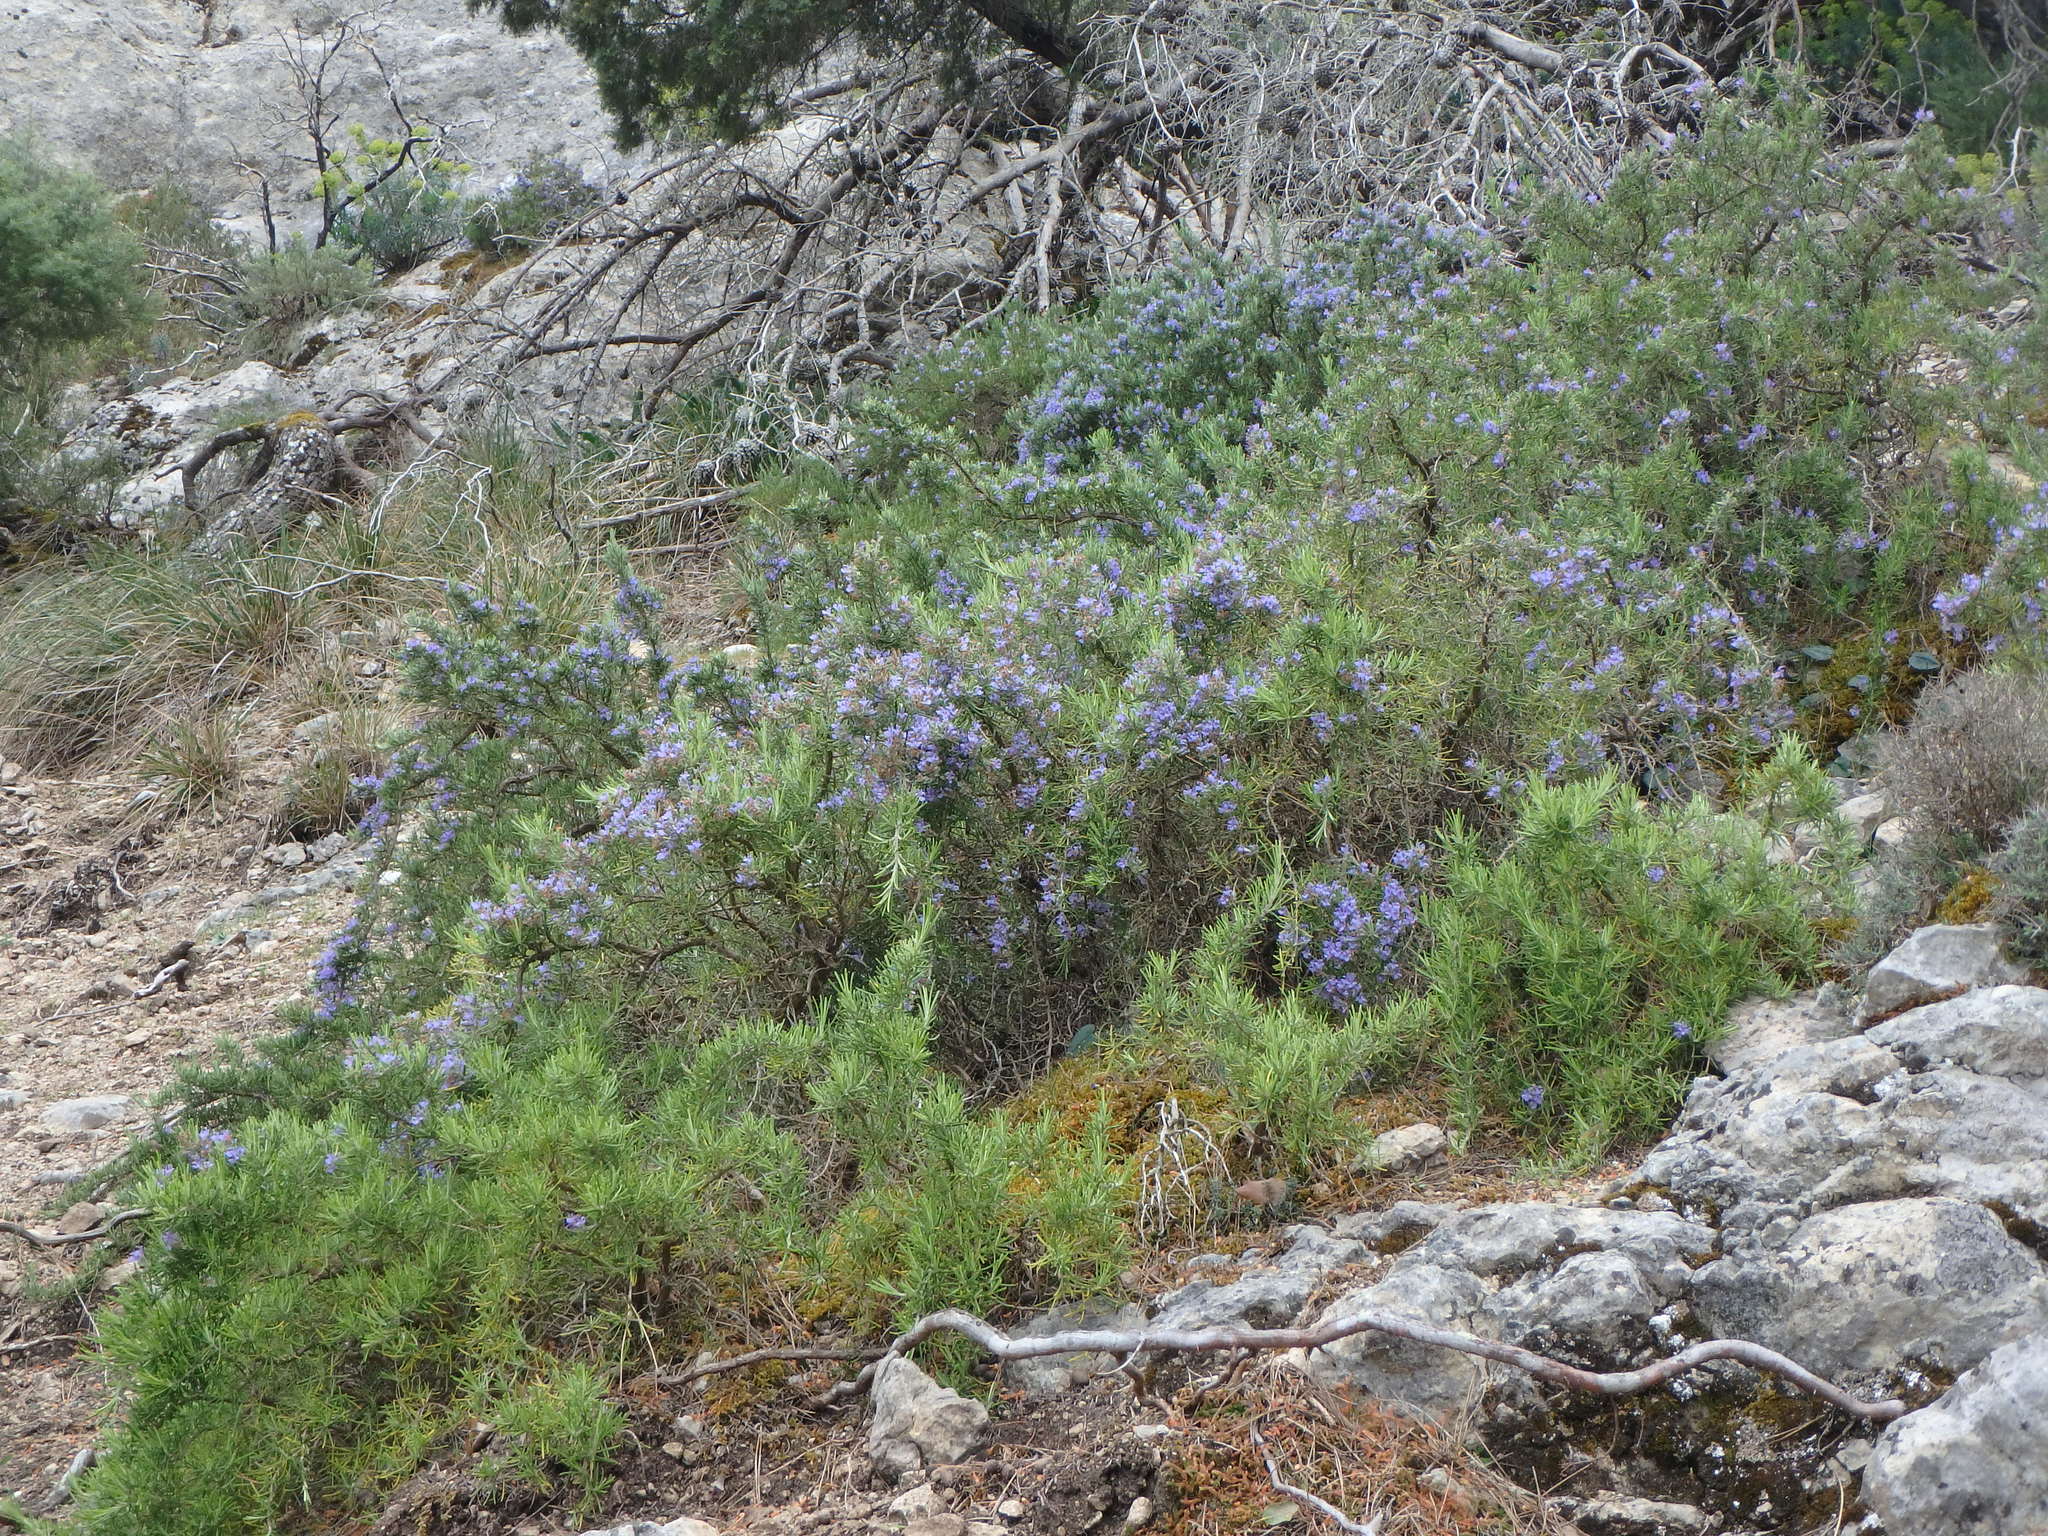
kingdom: Plantae
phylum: Tracheophyta
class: Magnoliopsida
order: Lamiales
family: Lamiaceae
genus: Salvia
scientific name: Salvia rosmarinus
